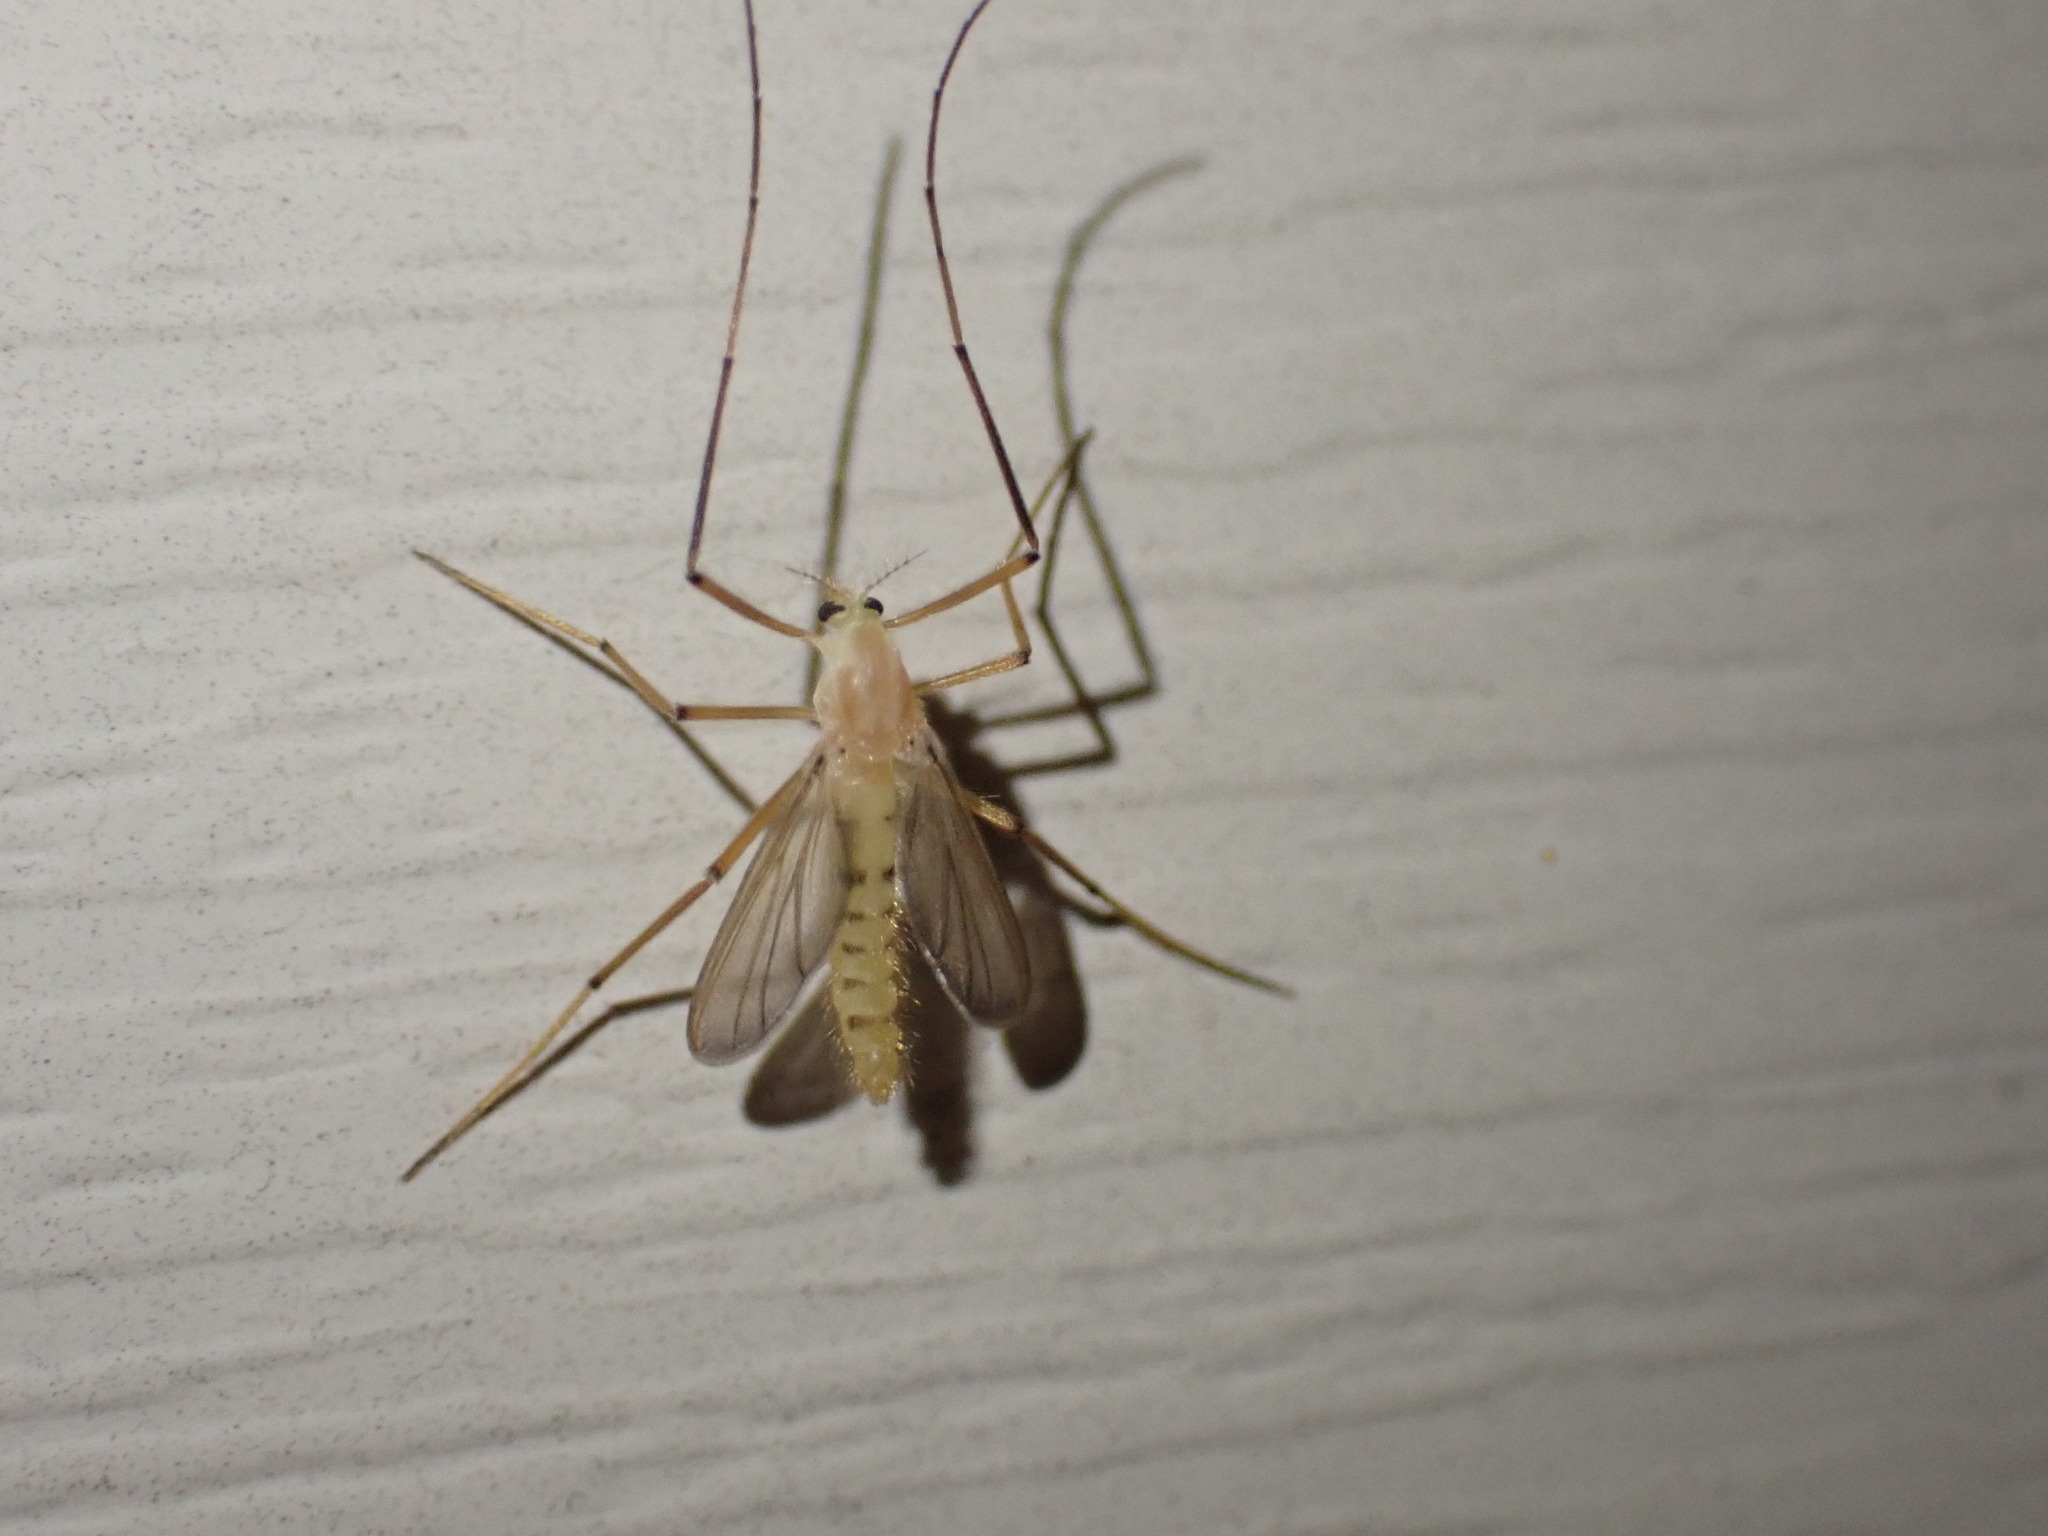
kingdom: Animalia
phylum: Arthropoda
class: Insecta
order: Diptera
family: Chironomidae
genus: Xylotopus
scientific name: Xylotopus par
